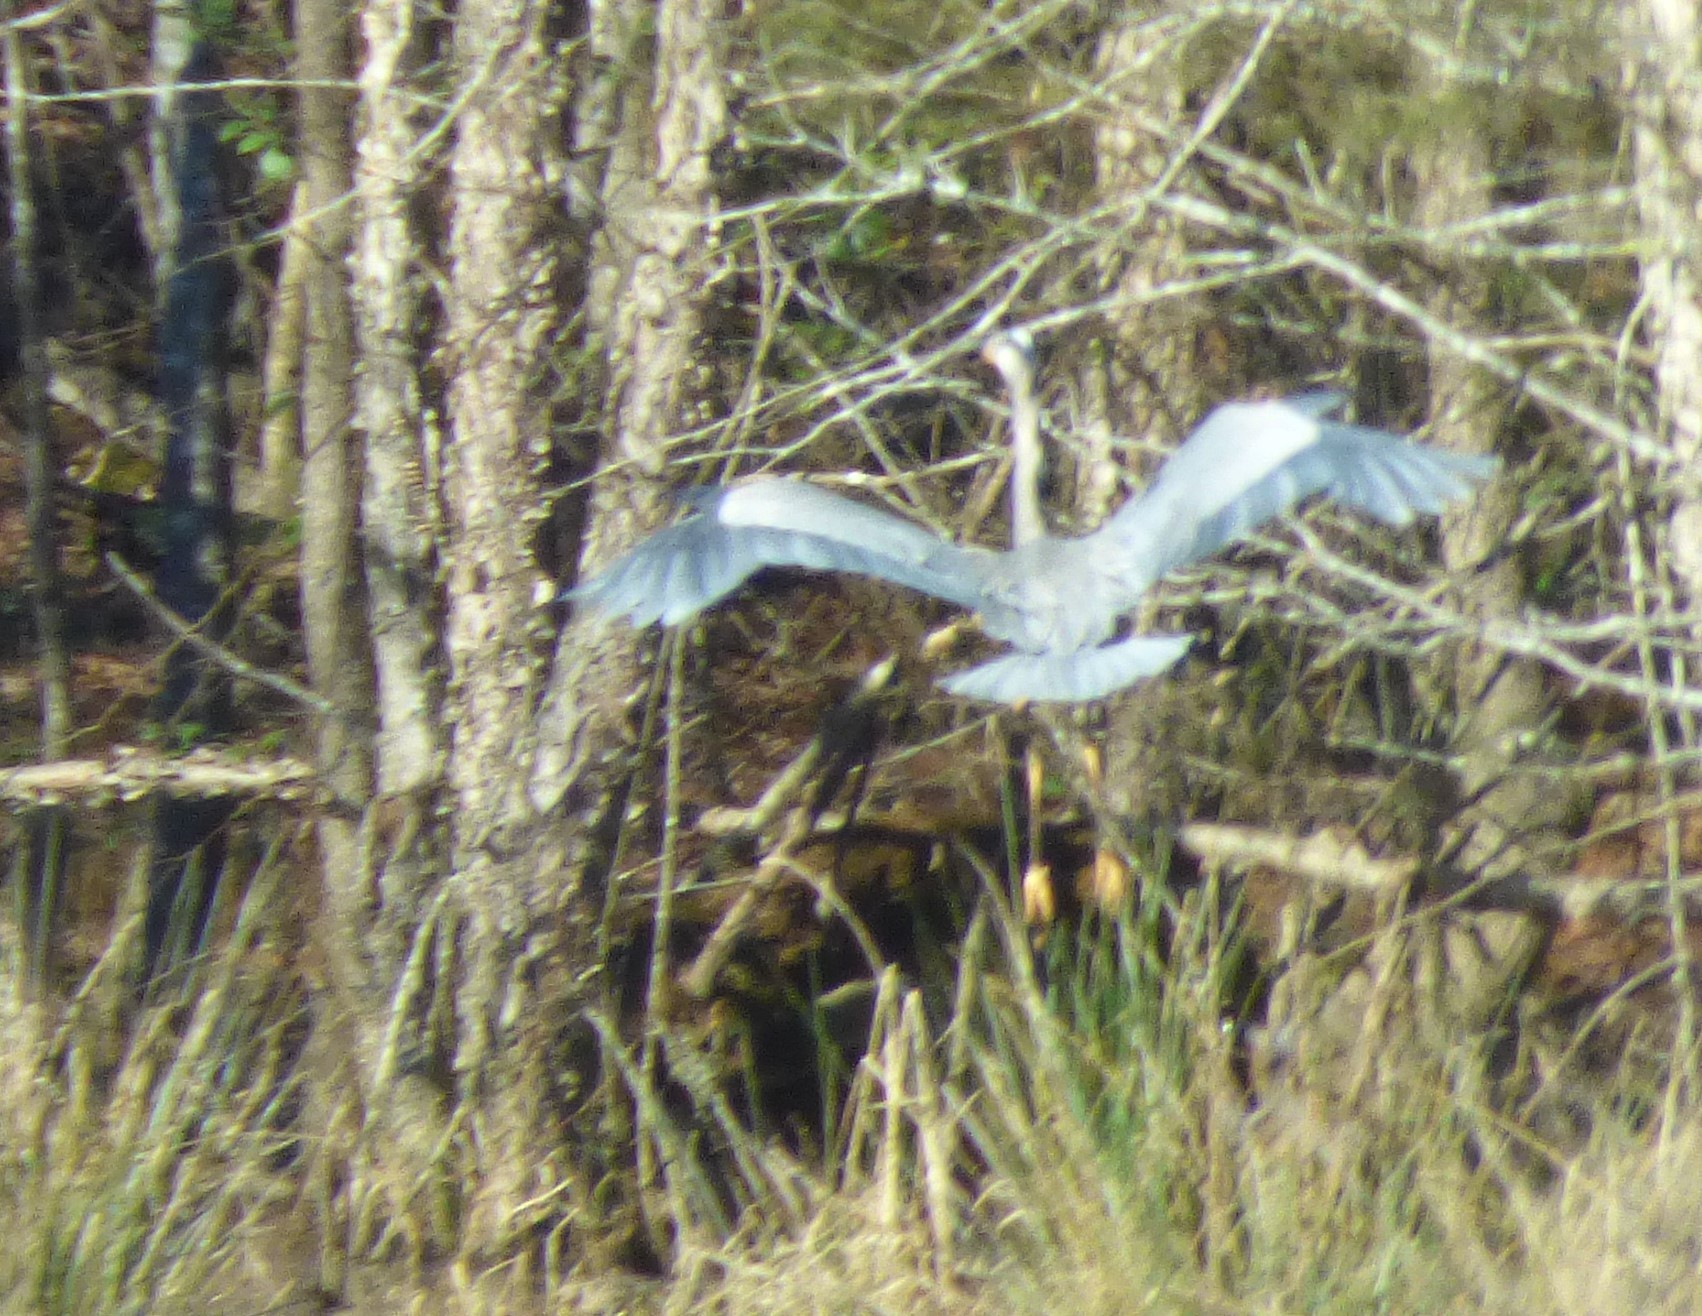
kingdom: Animalia
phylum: Chordata
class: Aves
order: Pelecaniformes
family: Ardeidae
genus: Ardea
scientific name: Ardea herodias
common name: Great blue heron
